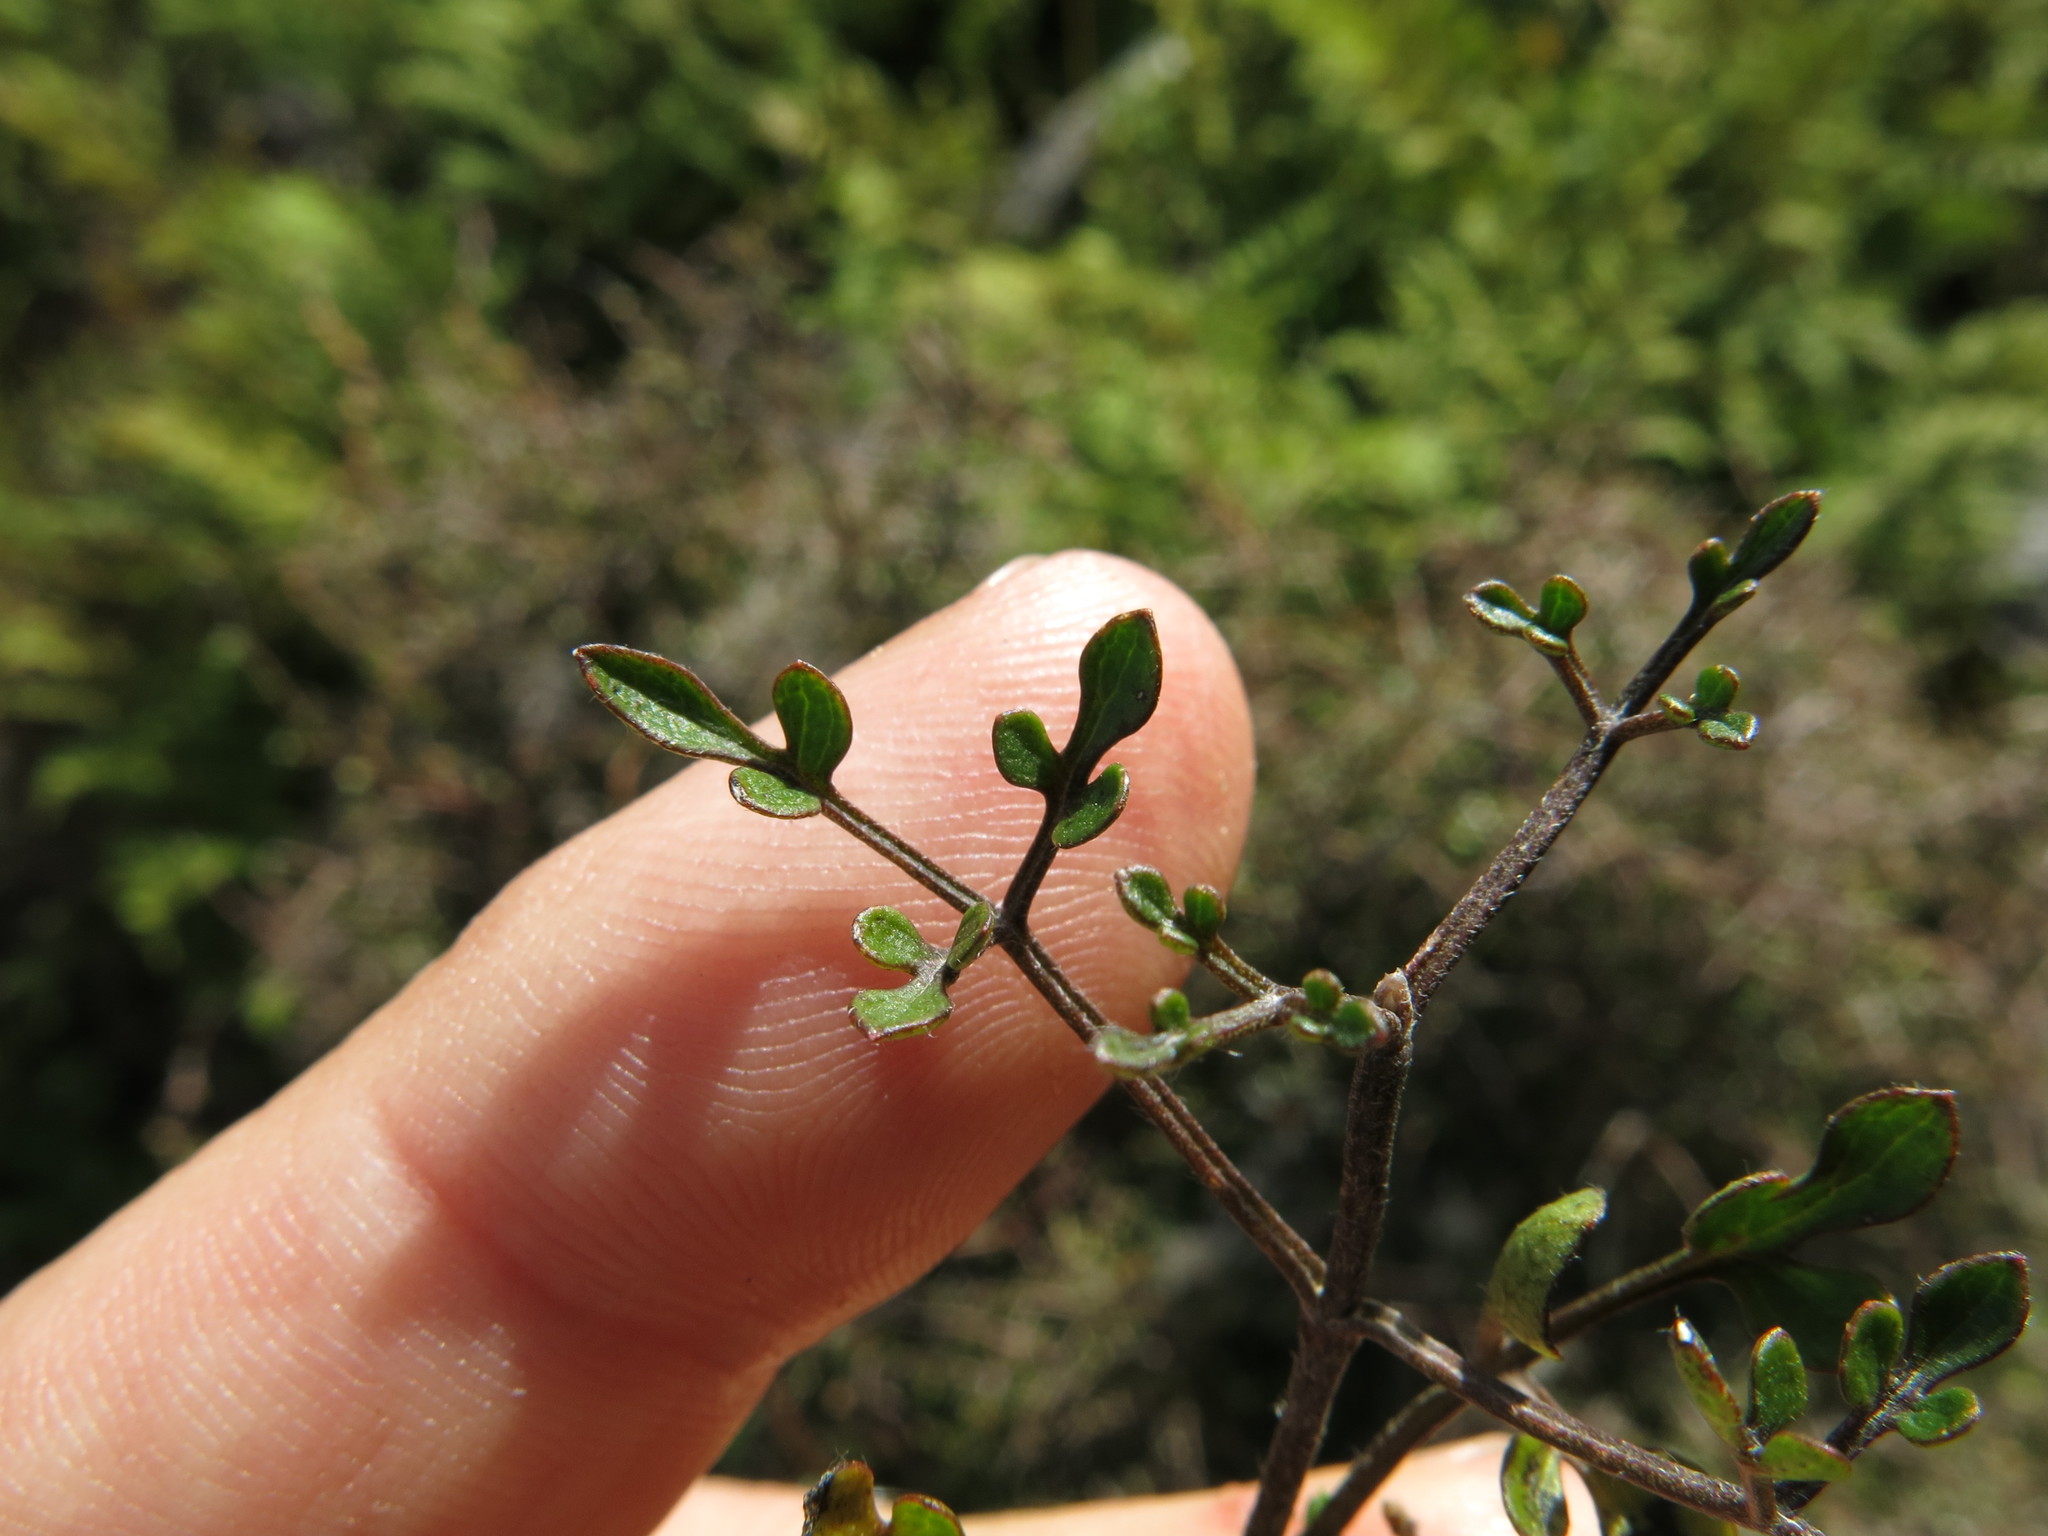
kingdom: Plantae
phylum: Tracheophyta
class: Magnoliopsida
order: Ranunculales
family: Ranunculaceae
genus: Clematis
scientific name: Clematis marata
